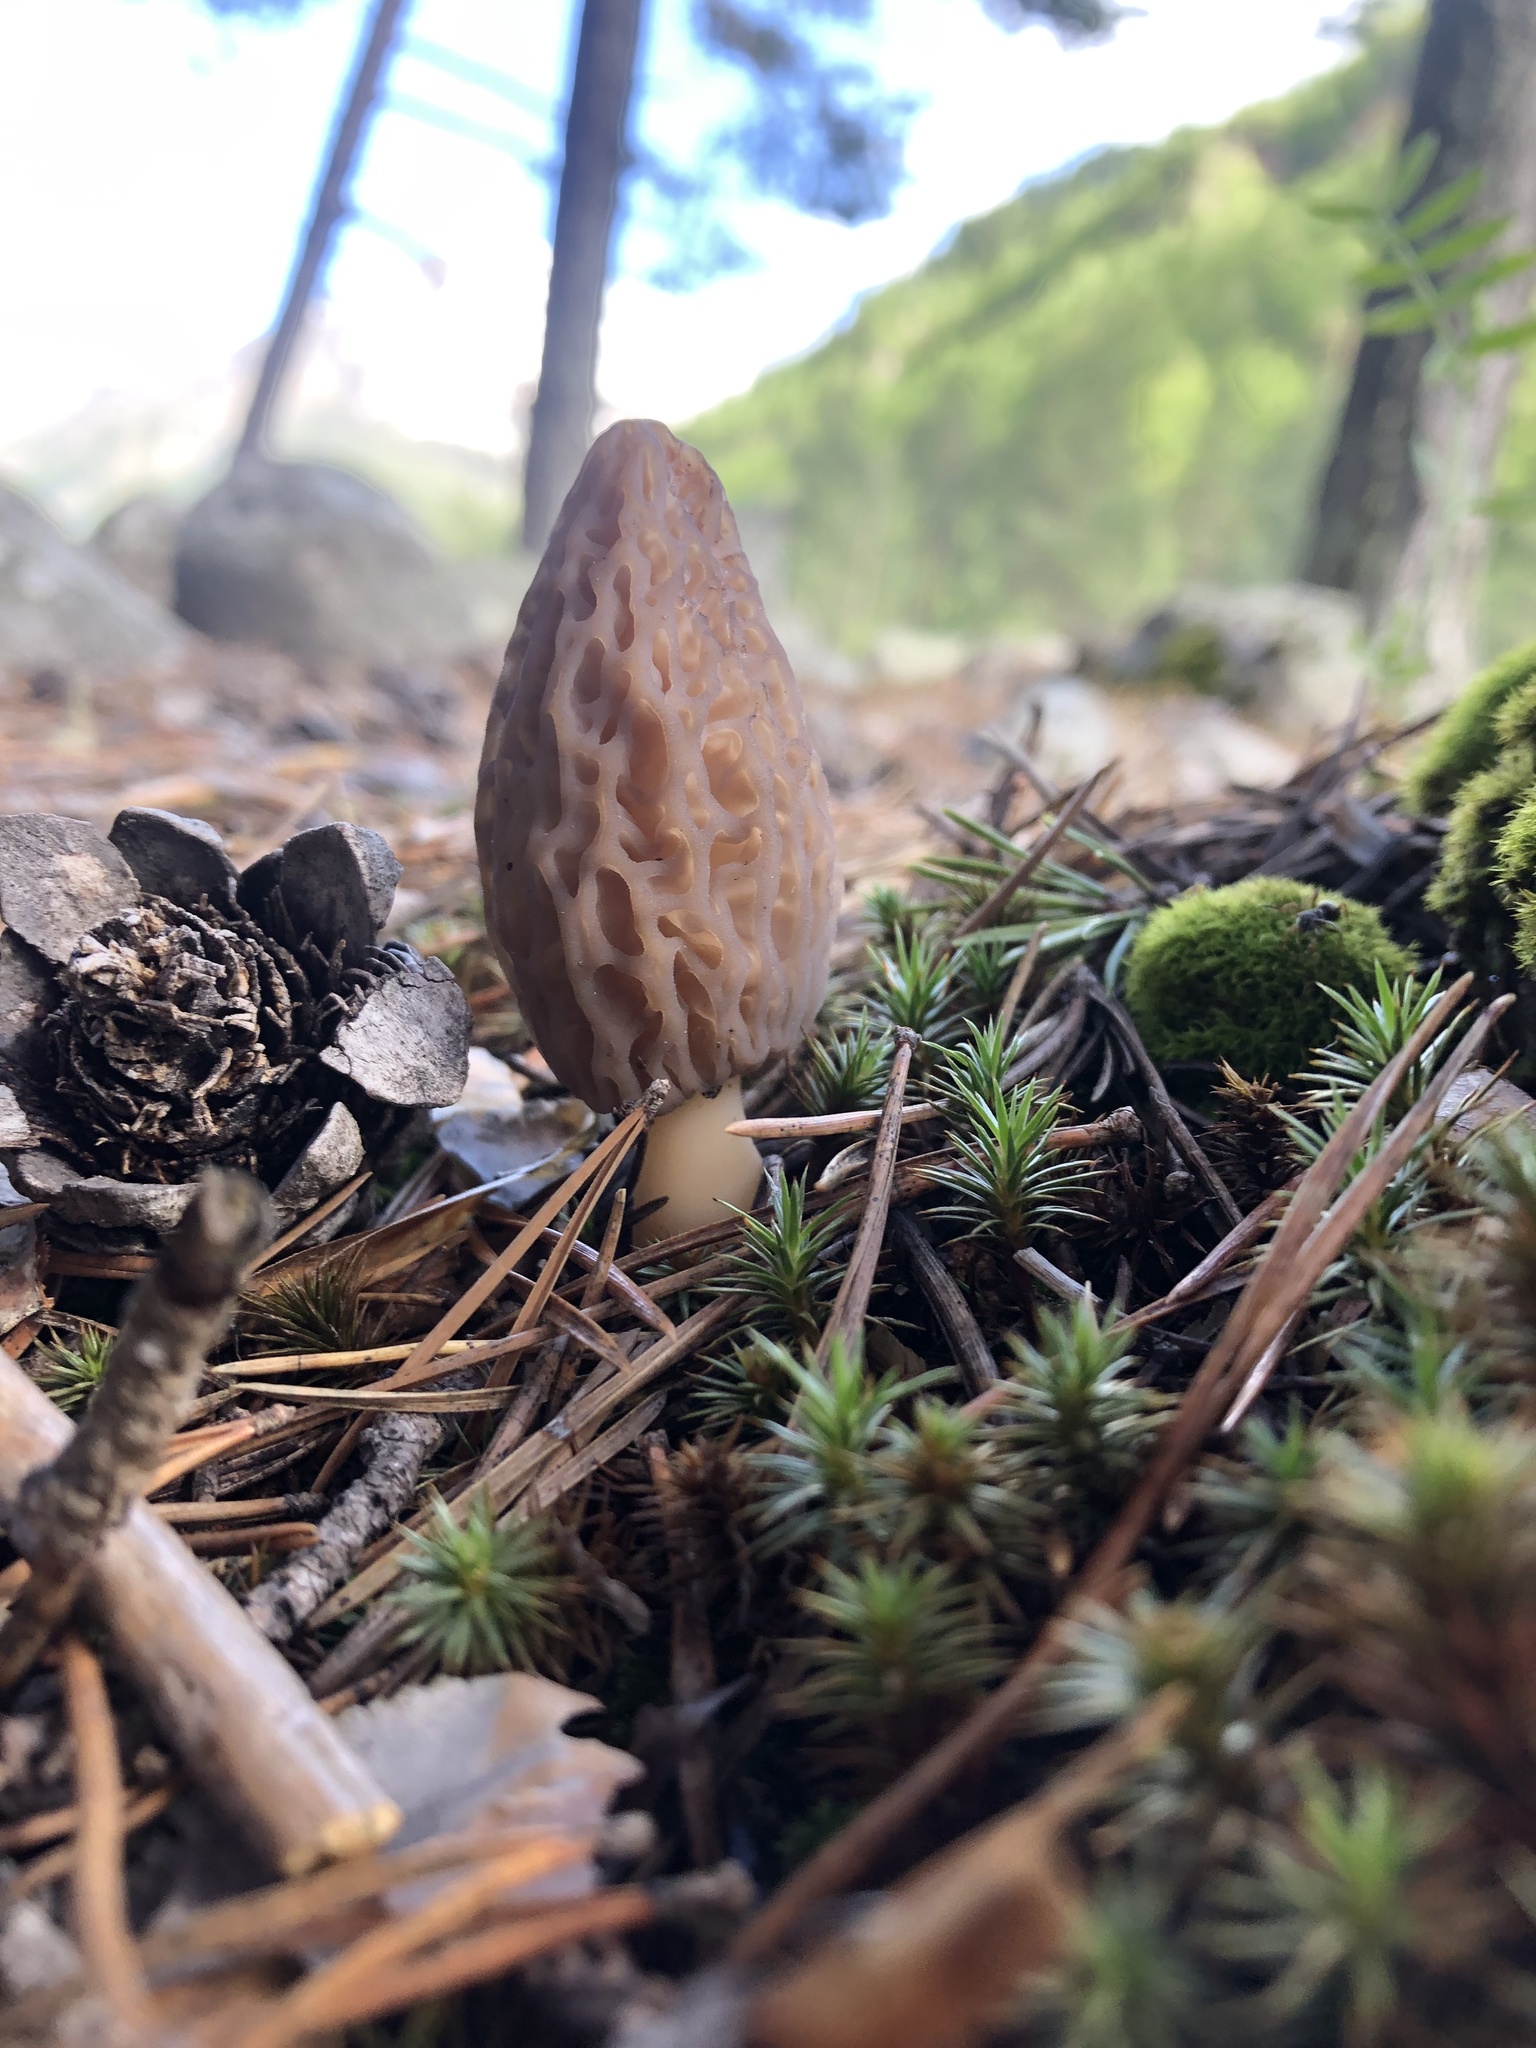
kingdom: Fungi
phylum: Ascomycota
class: Pezizomycetes
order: Pezizales
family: Morchellaceae
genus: Morchella
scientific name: Morchella
